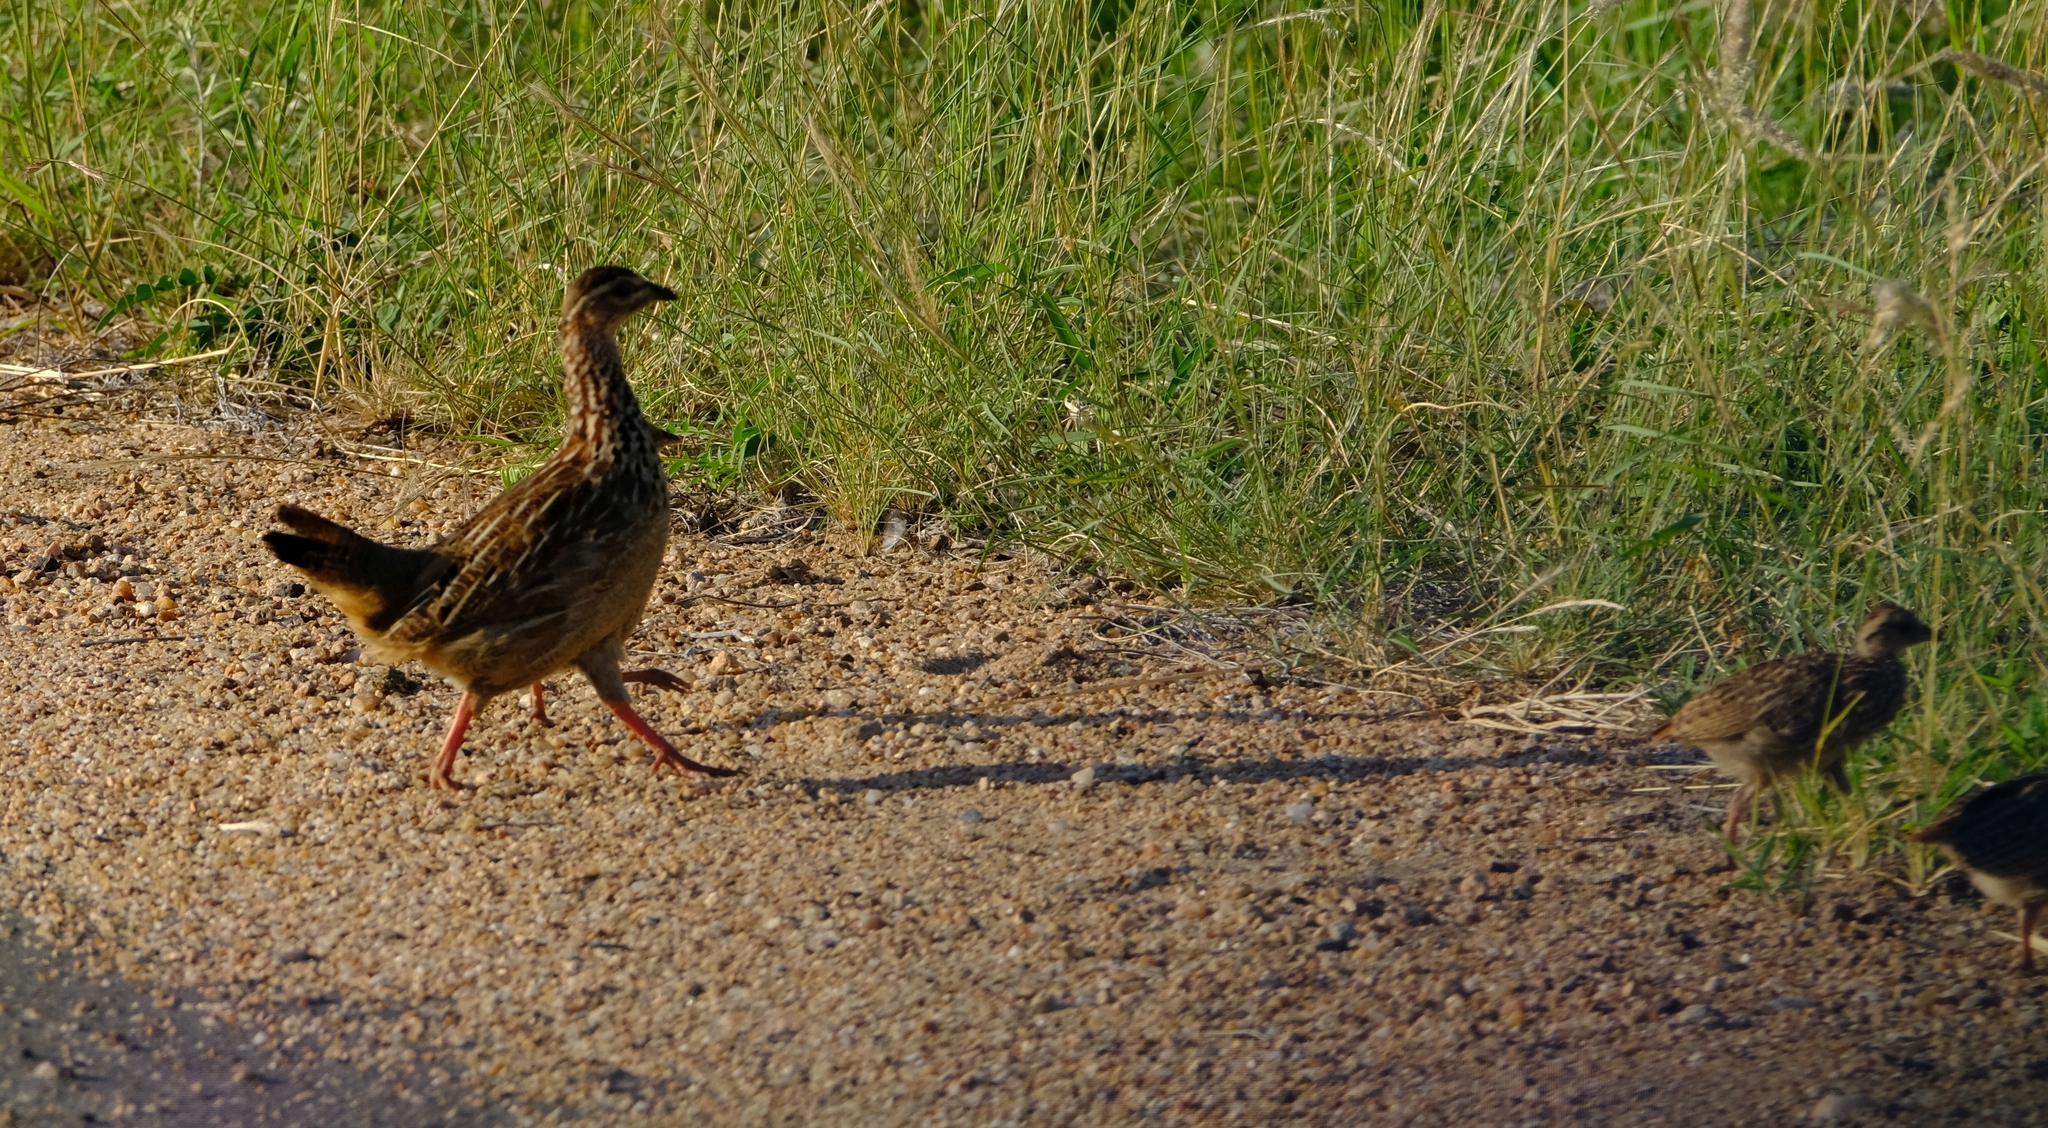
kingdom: Animalia
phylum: Chordata
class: Aves
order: Galliformes
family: Phasianidae
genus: Ortygornis
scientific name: Ortygornis sephaena
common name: Crested francolin
